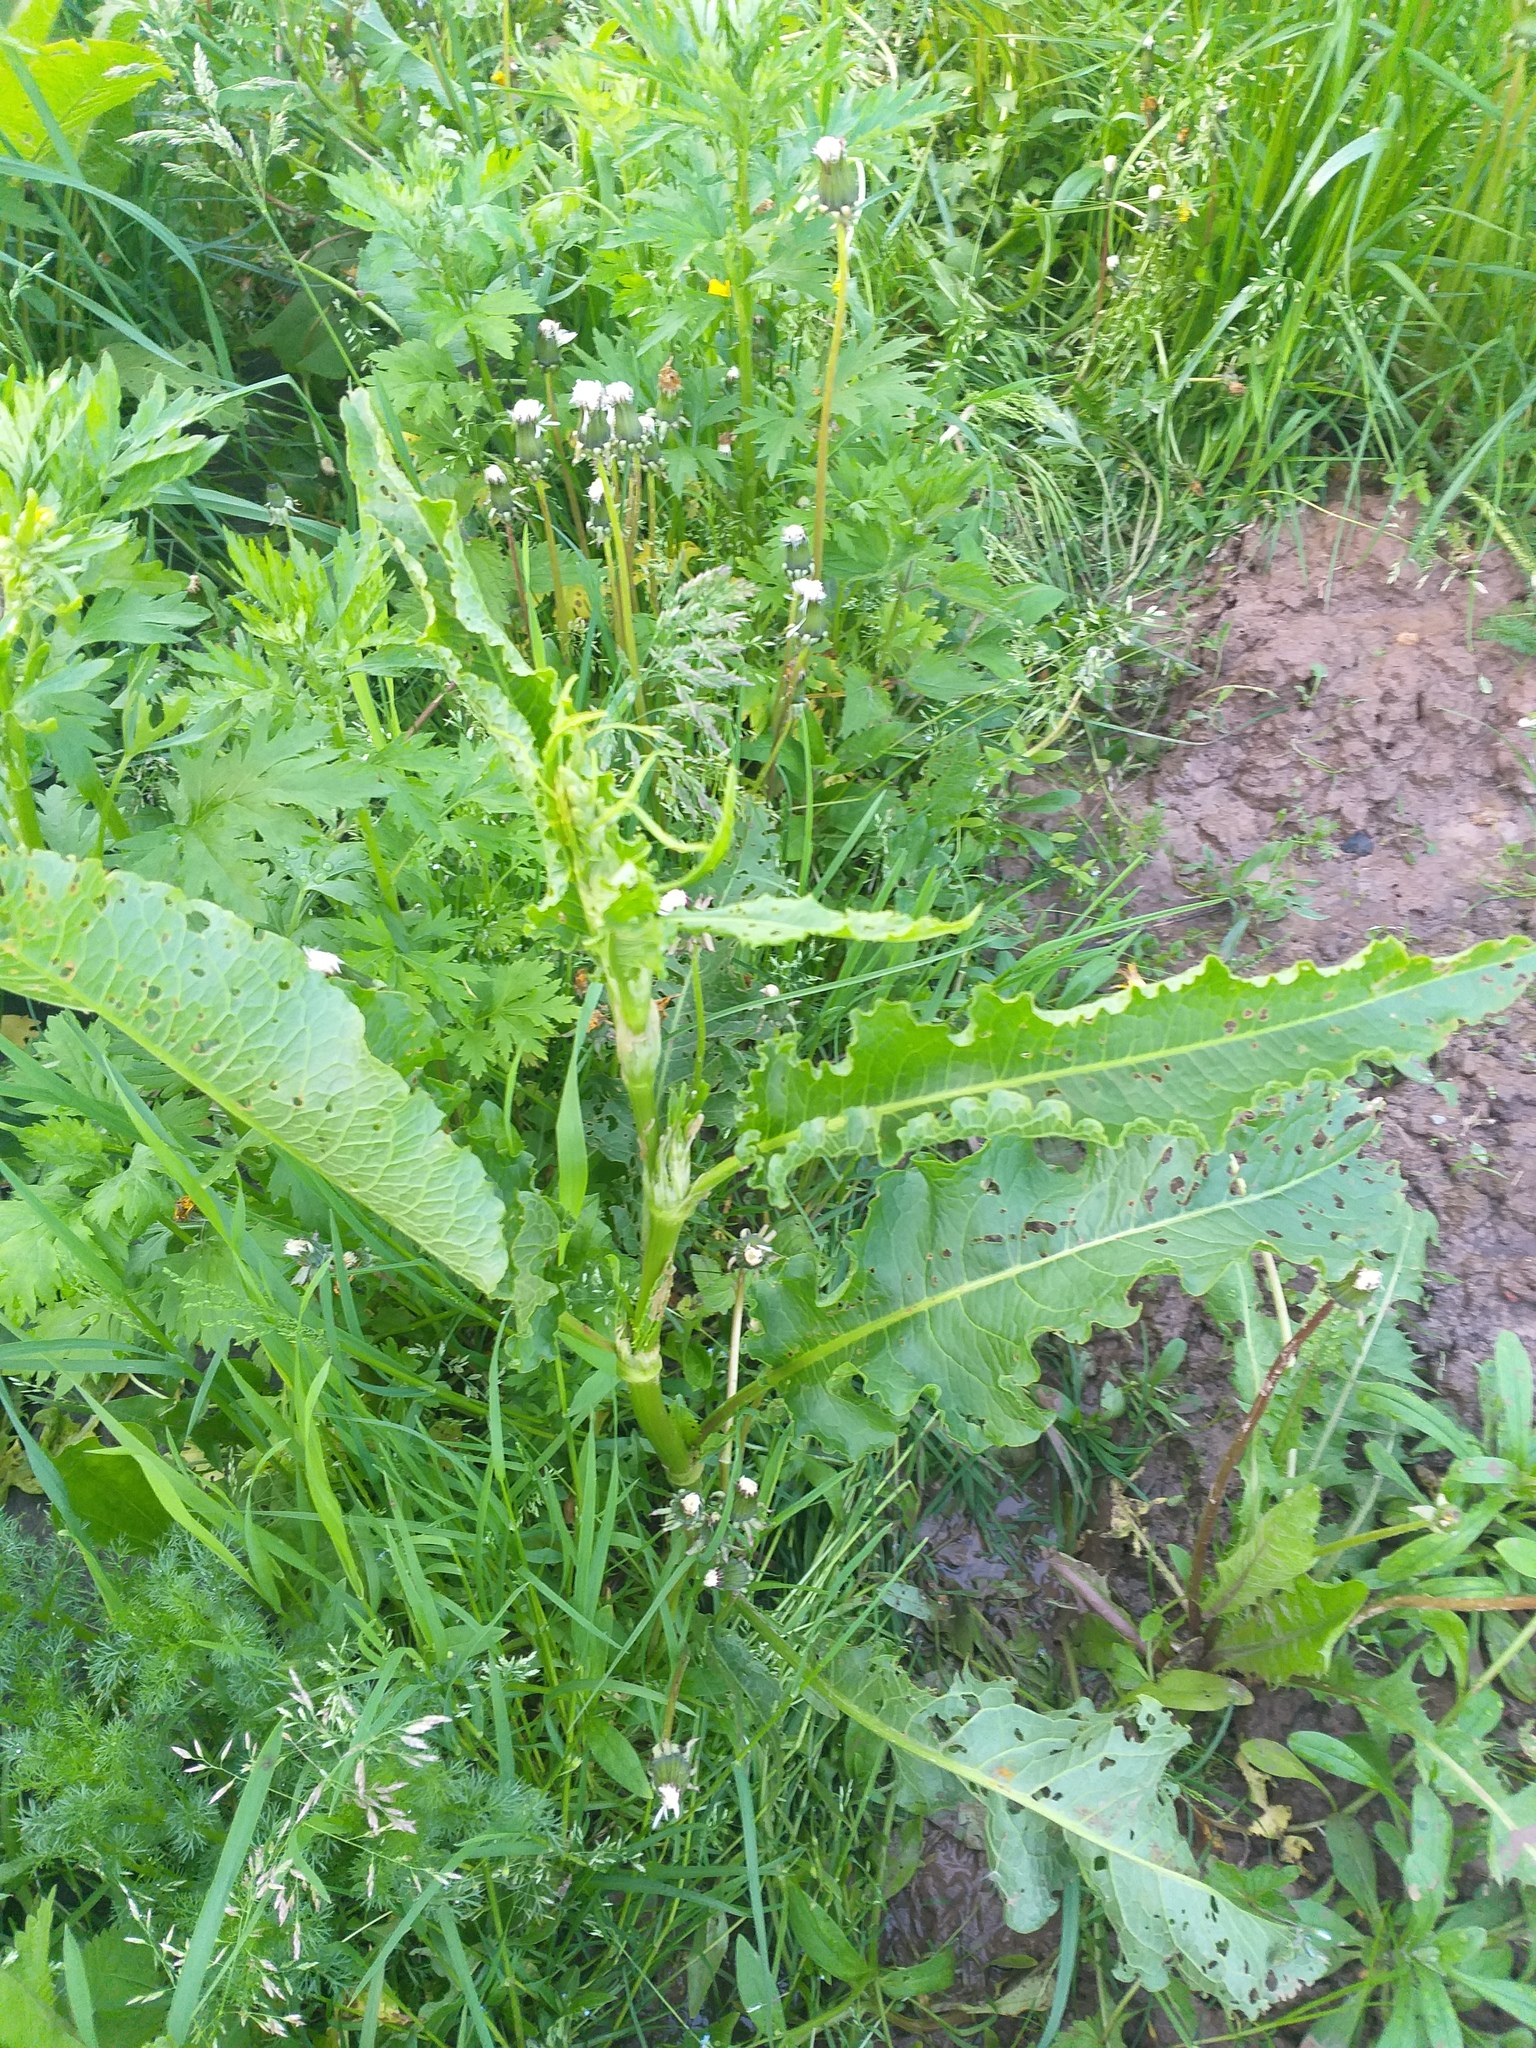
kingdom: Plantae
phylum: Tracheophyta
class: Magnoliopsida
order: Caryophyllales
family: Polygonaceae
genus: Rumex
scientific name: Rumex crispus
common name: Curled dock
